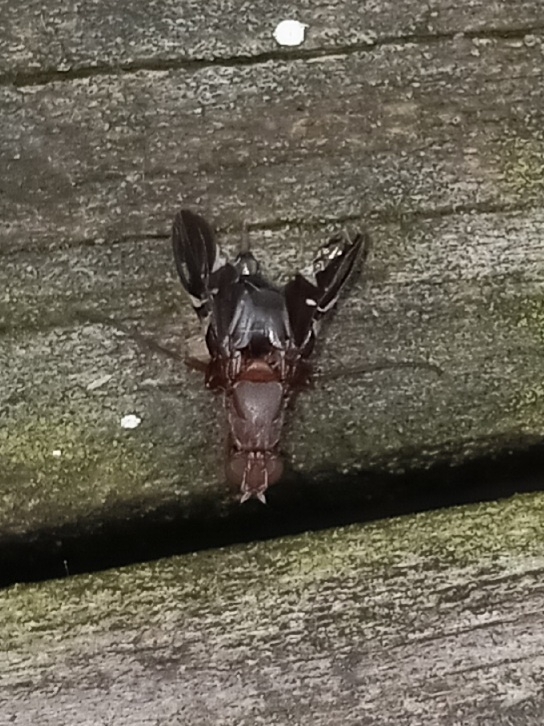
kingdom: Animalia
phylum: Arthropoda
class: Insecta
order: Diptera
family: Ulidiidae
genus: Delphinia
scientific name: Delphinia picta
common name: Common picture-winged fly
